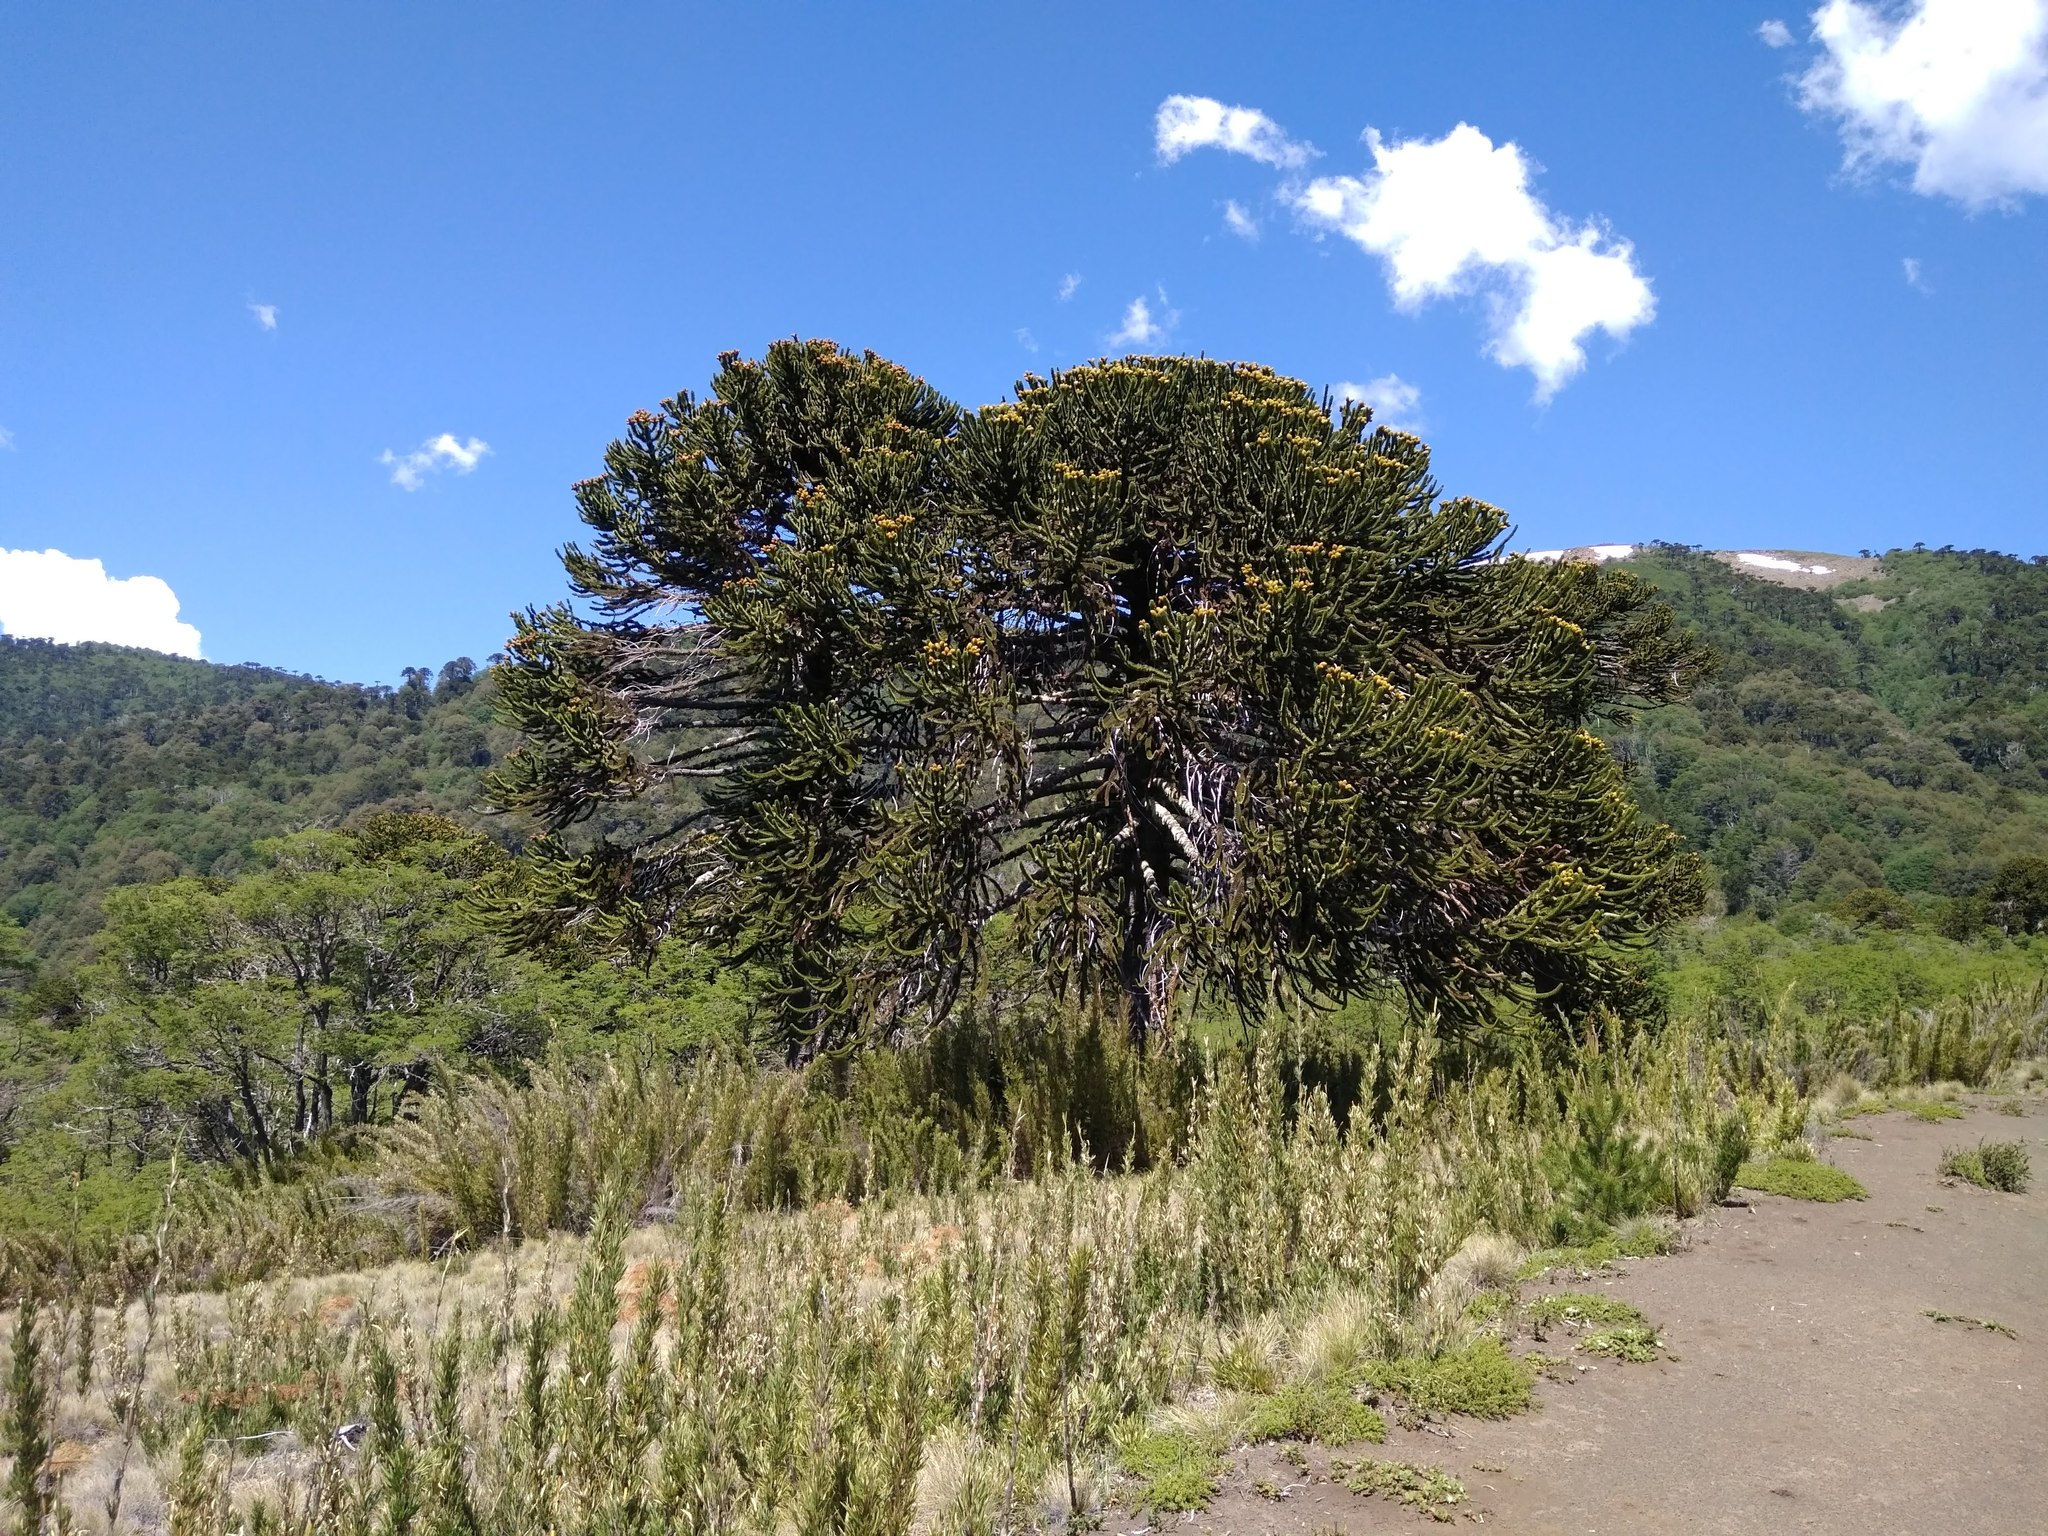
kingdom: Plantae
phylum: Tracheophyta
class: Pinopsida
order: Pinales
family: Araucariaceae
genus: Araucaria
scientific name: Araucaria araucana
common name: Monkey-puzzle
